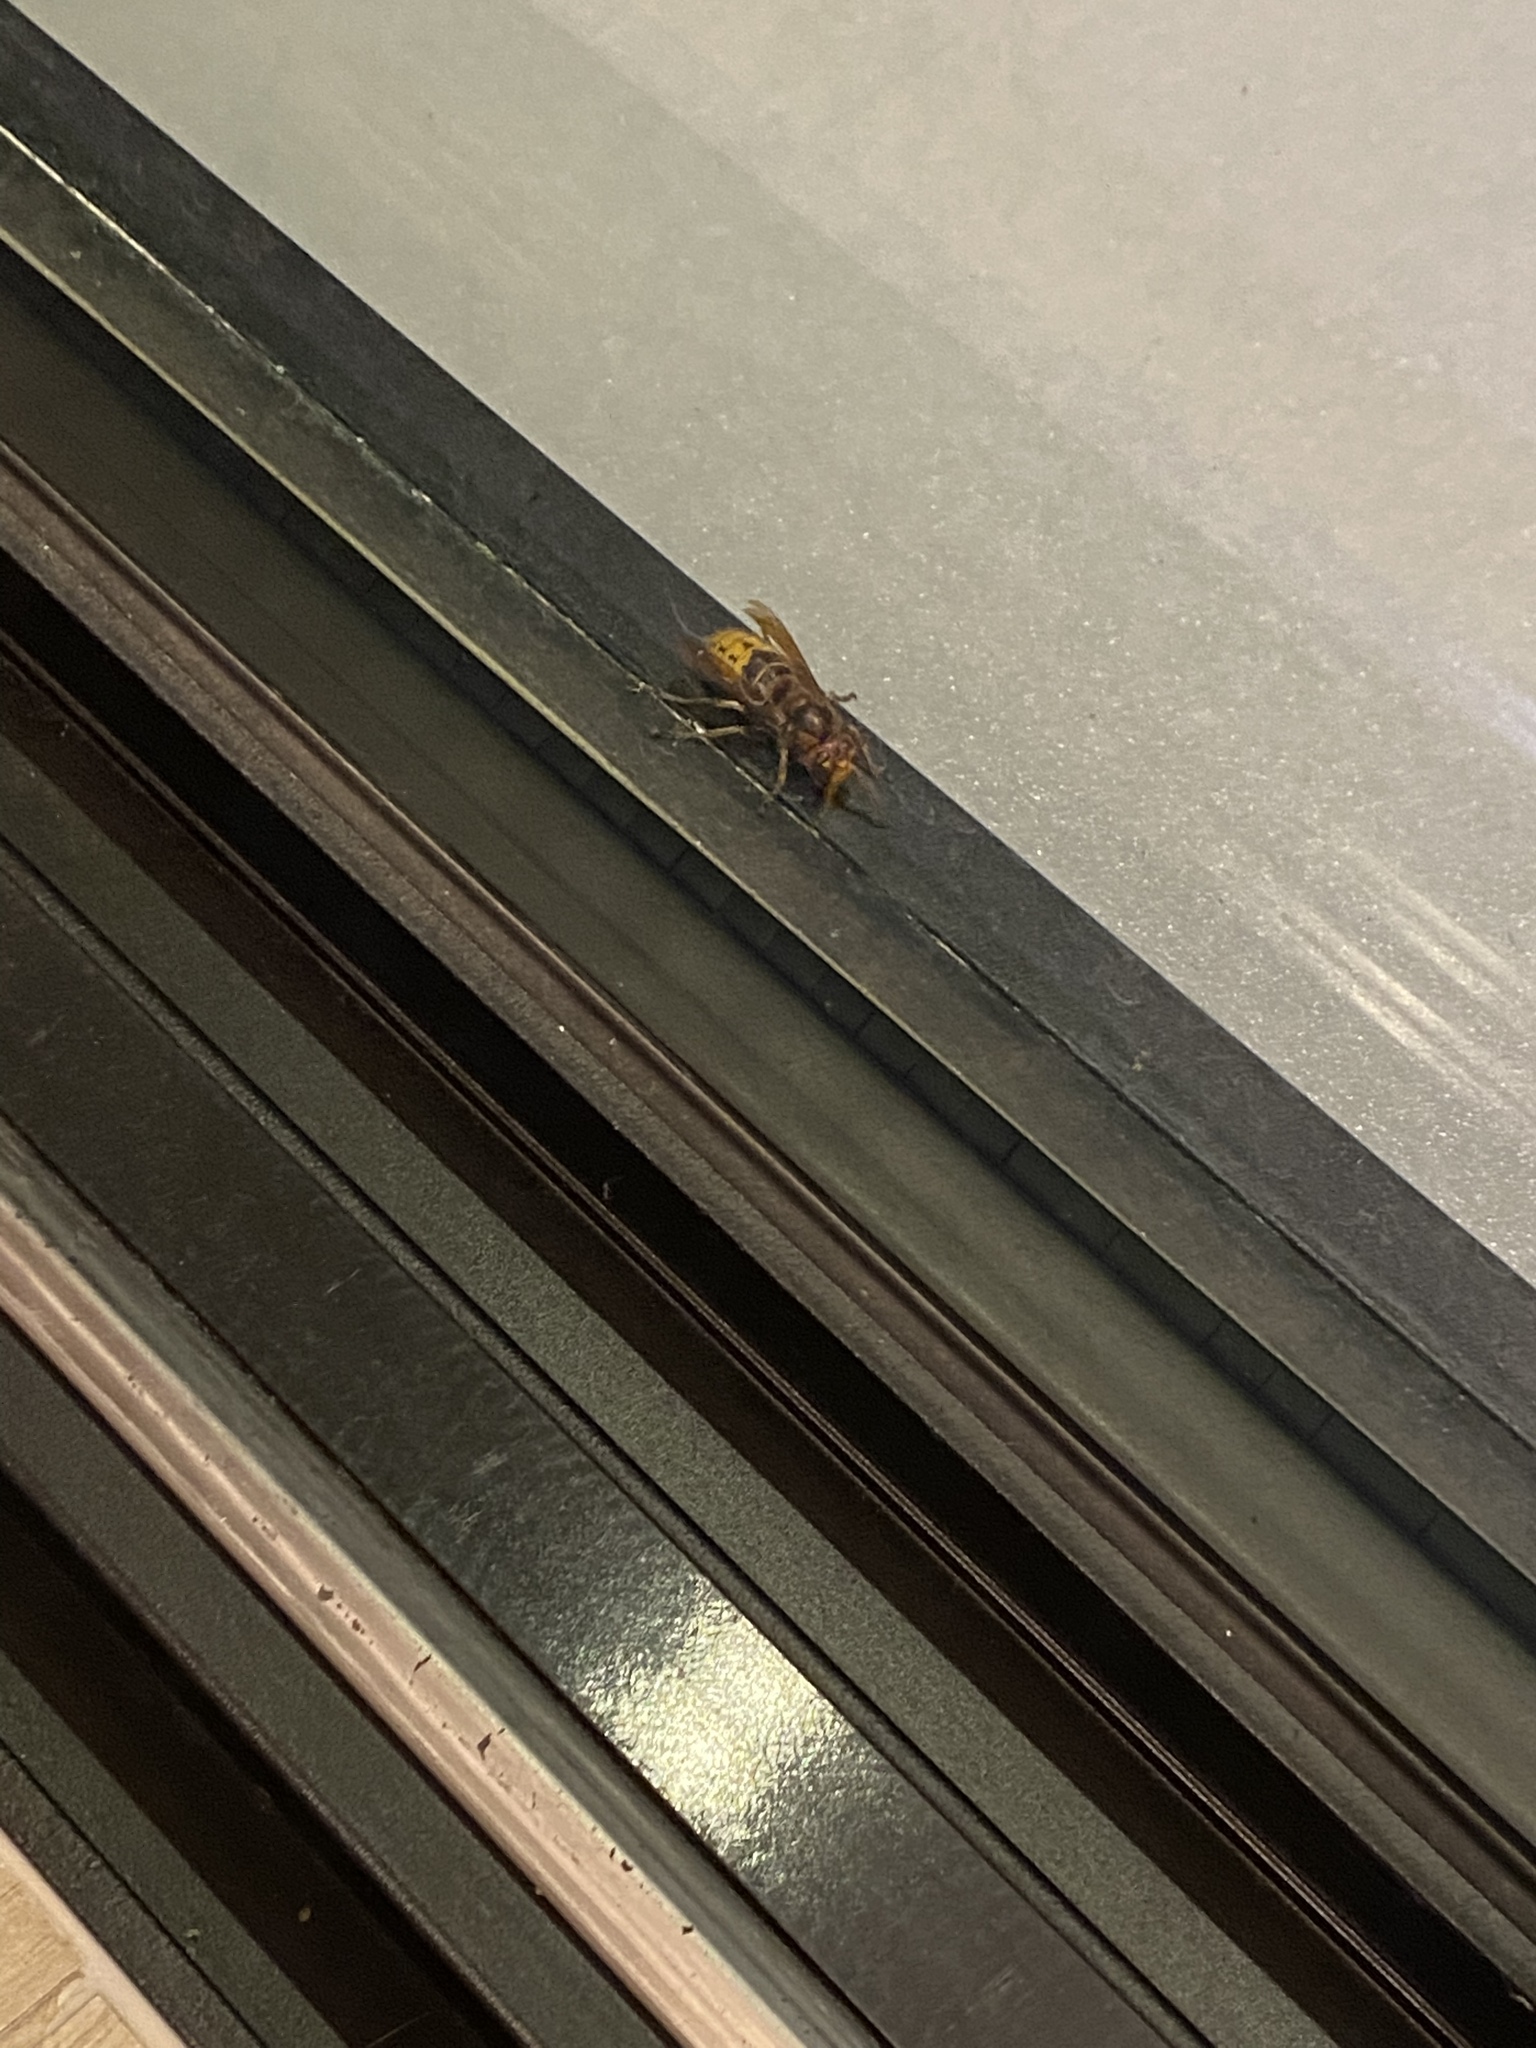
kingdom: Animalia
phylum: Arthropoda
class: Insecta
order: Hymenoptera
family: Vespidae
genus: Vespa
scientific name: Vespa crabro
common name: Hornet
